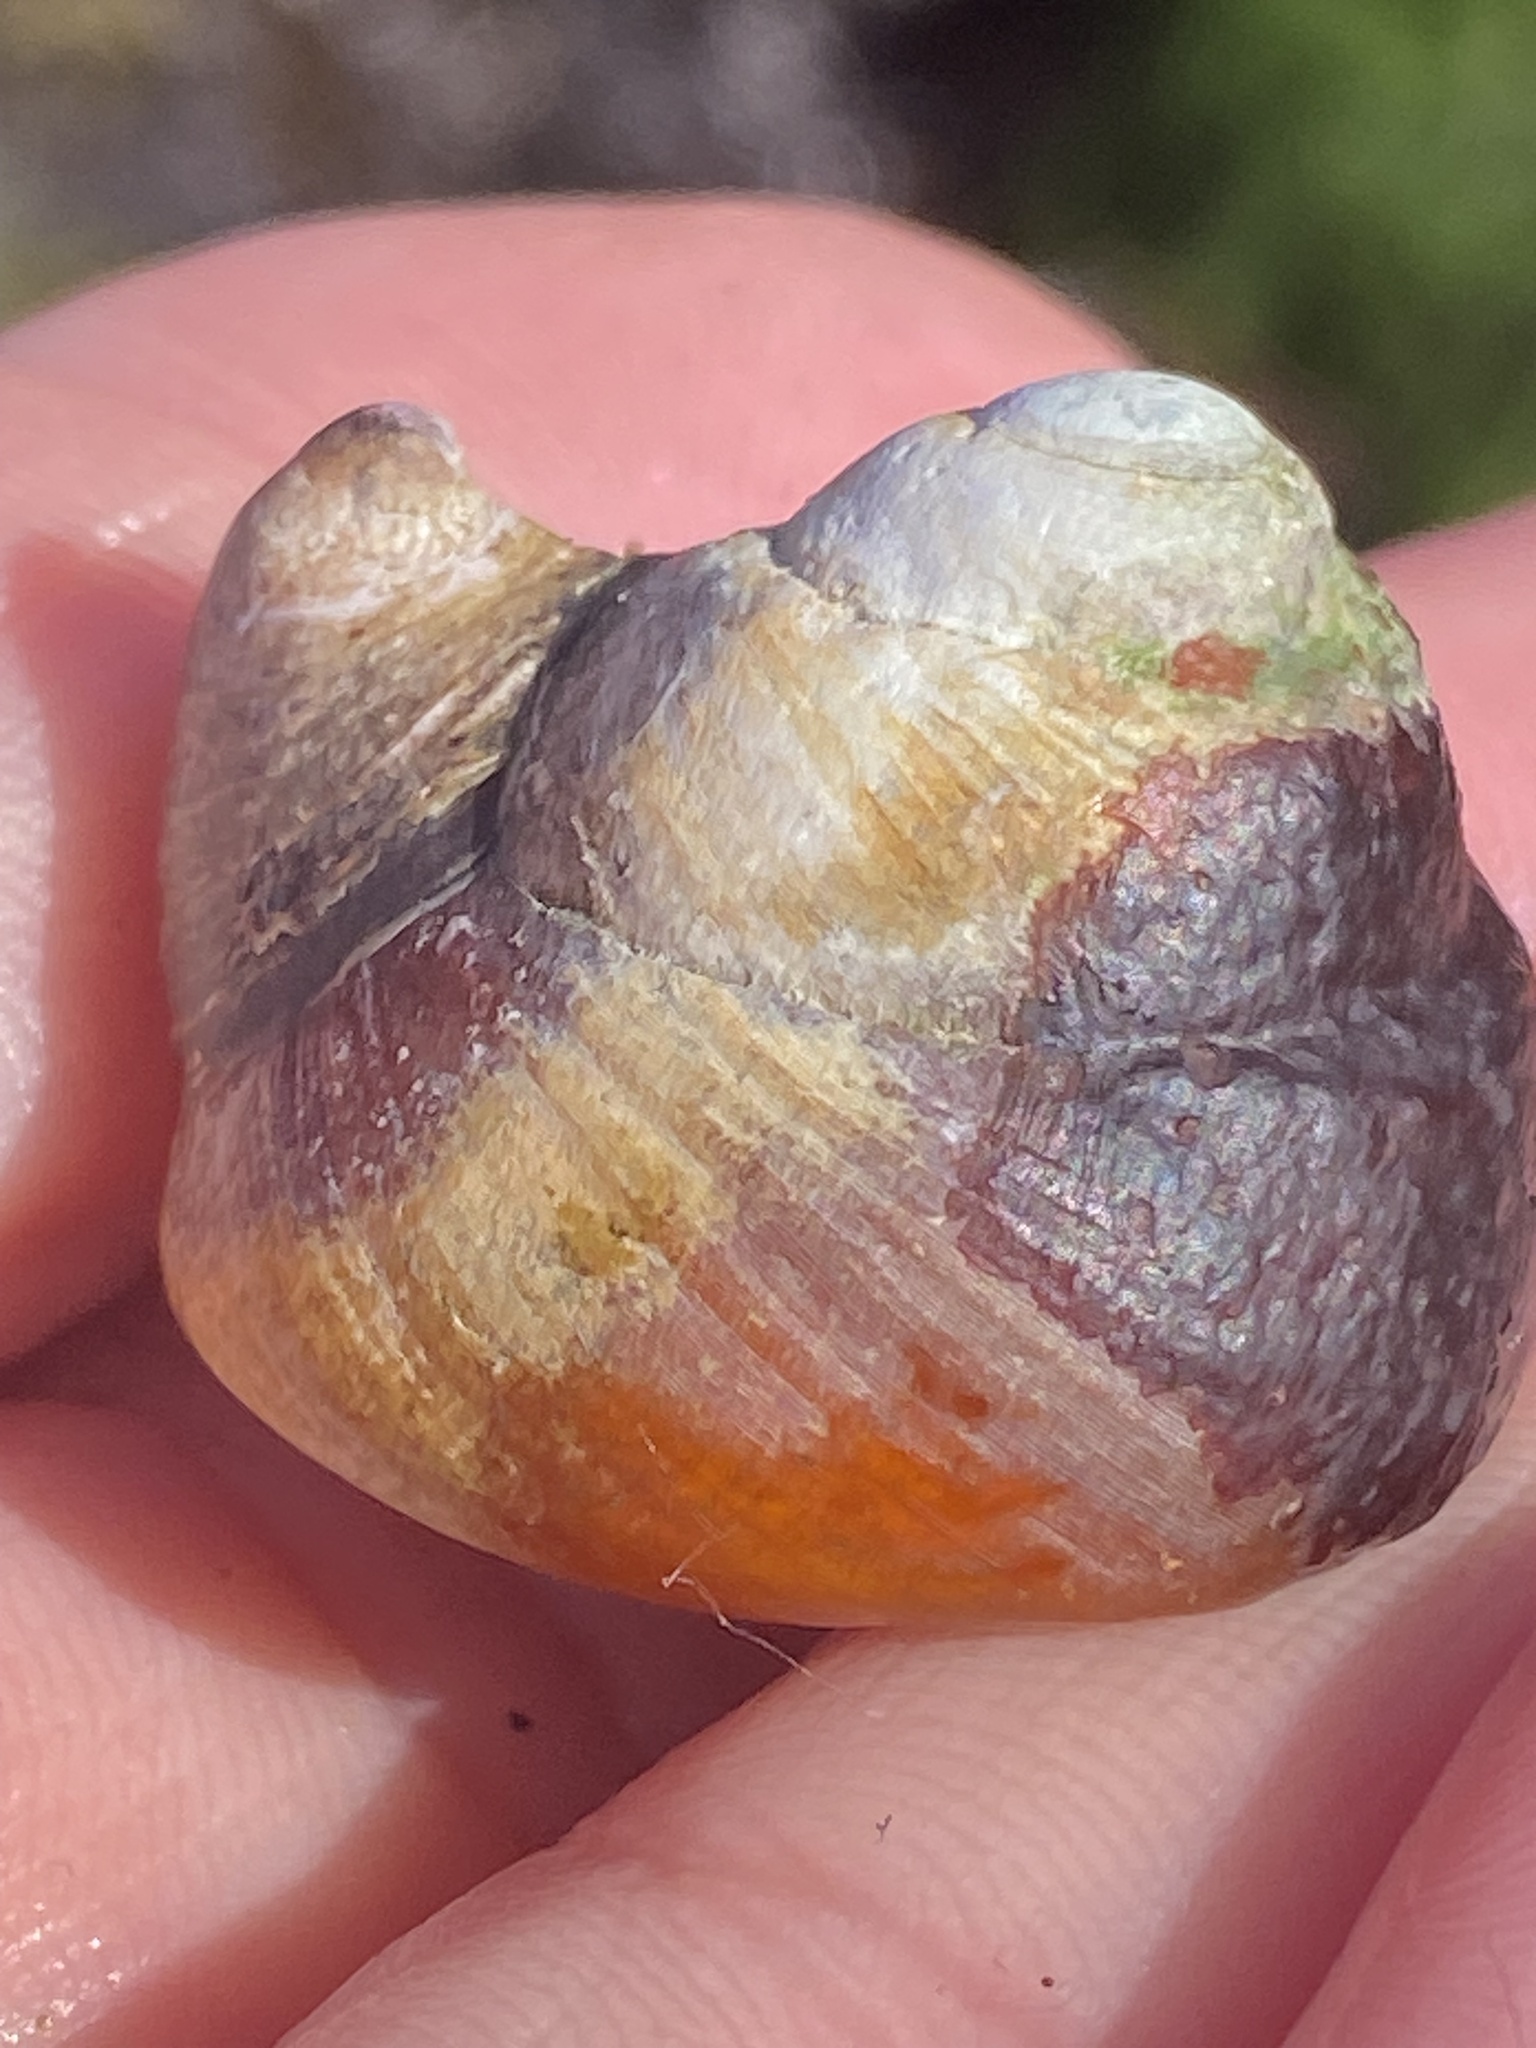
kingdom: Animalia
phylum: Mollusca
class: Gastropoda
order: Trochida
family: Tegulidae
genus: Tegula
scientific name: Tegula brunnea
